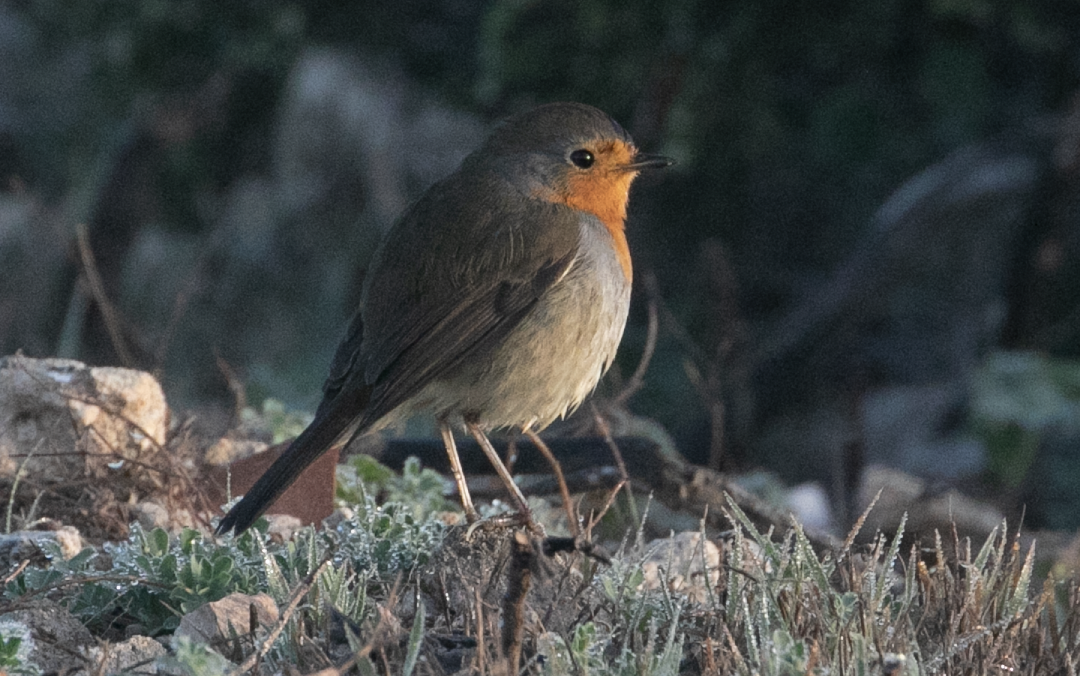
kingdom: Animalia
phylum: Chordata
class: Aves
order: Passeriformes
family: Muscicapidae
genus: Erithacus
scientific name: Erithacus rubecula
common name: European robin
